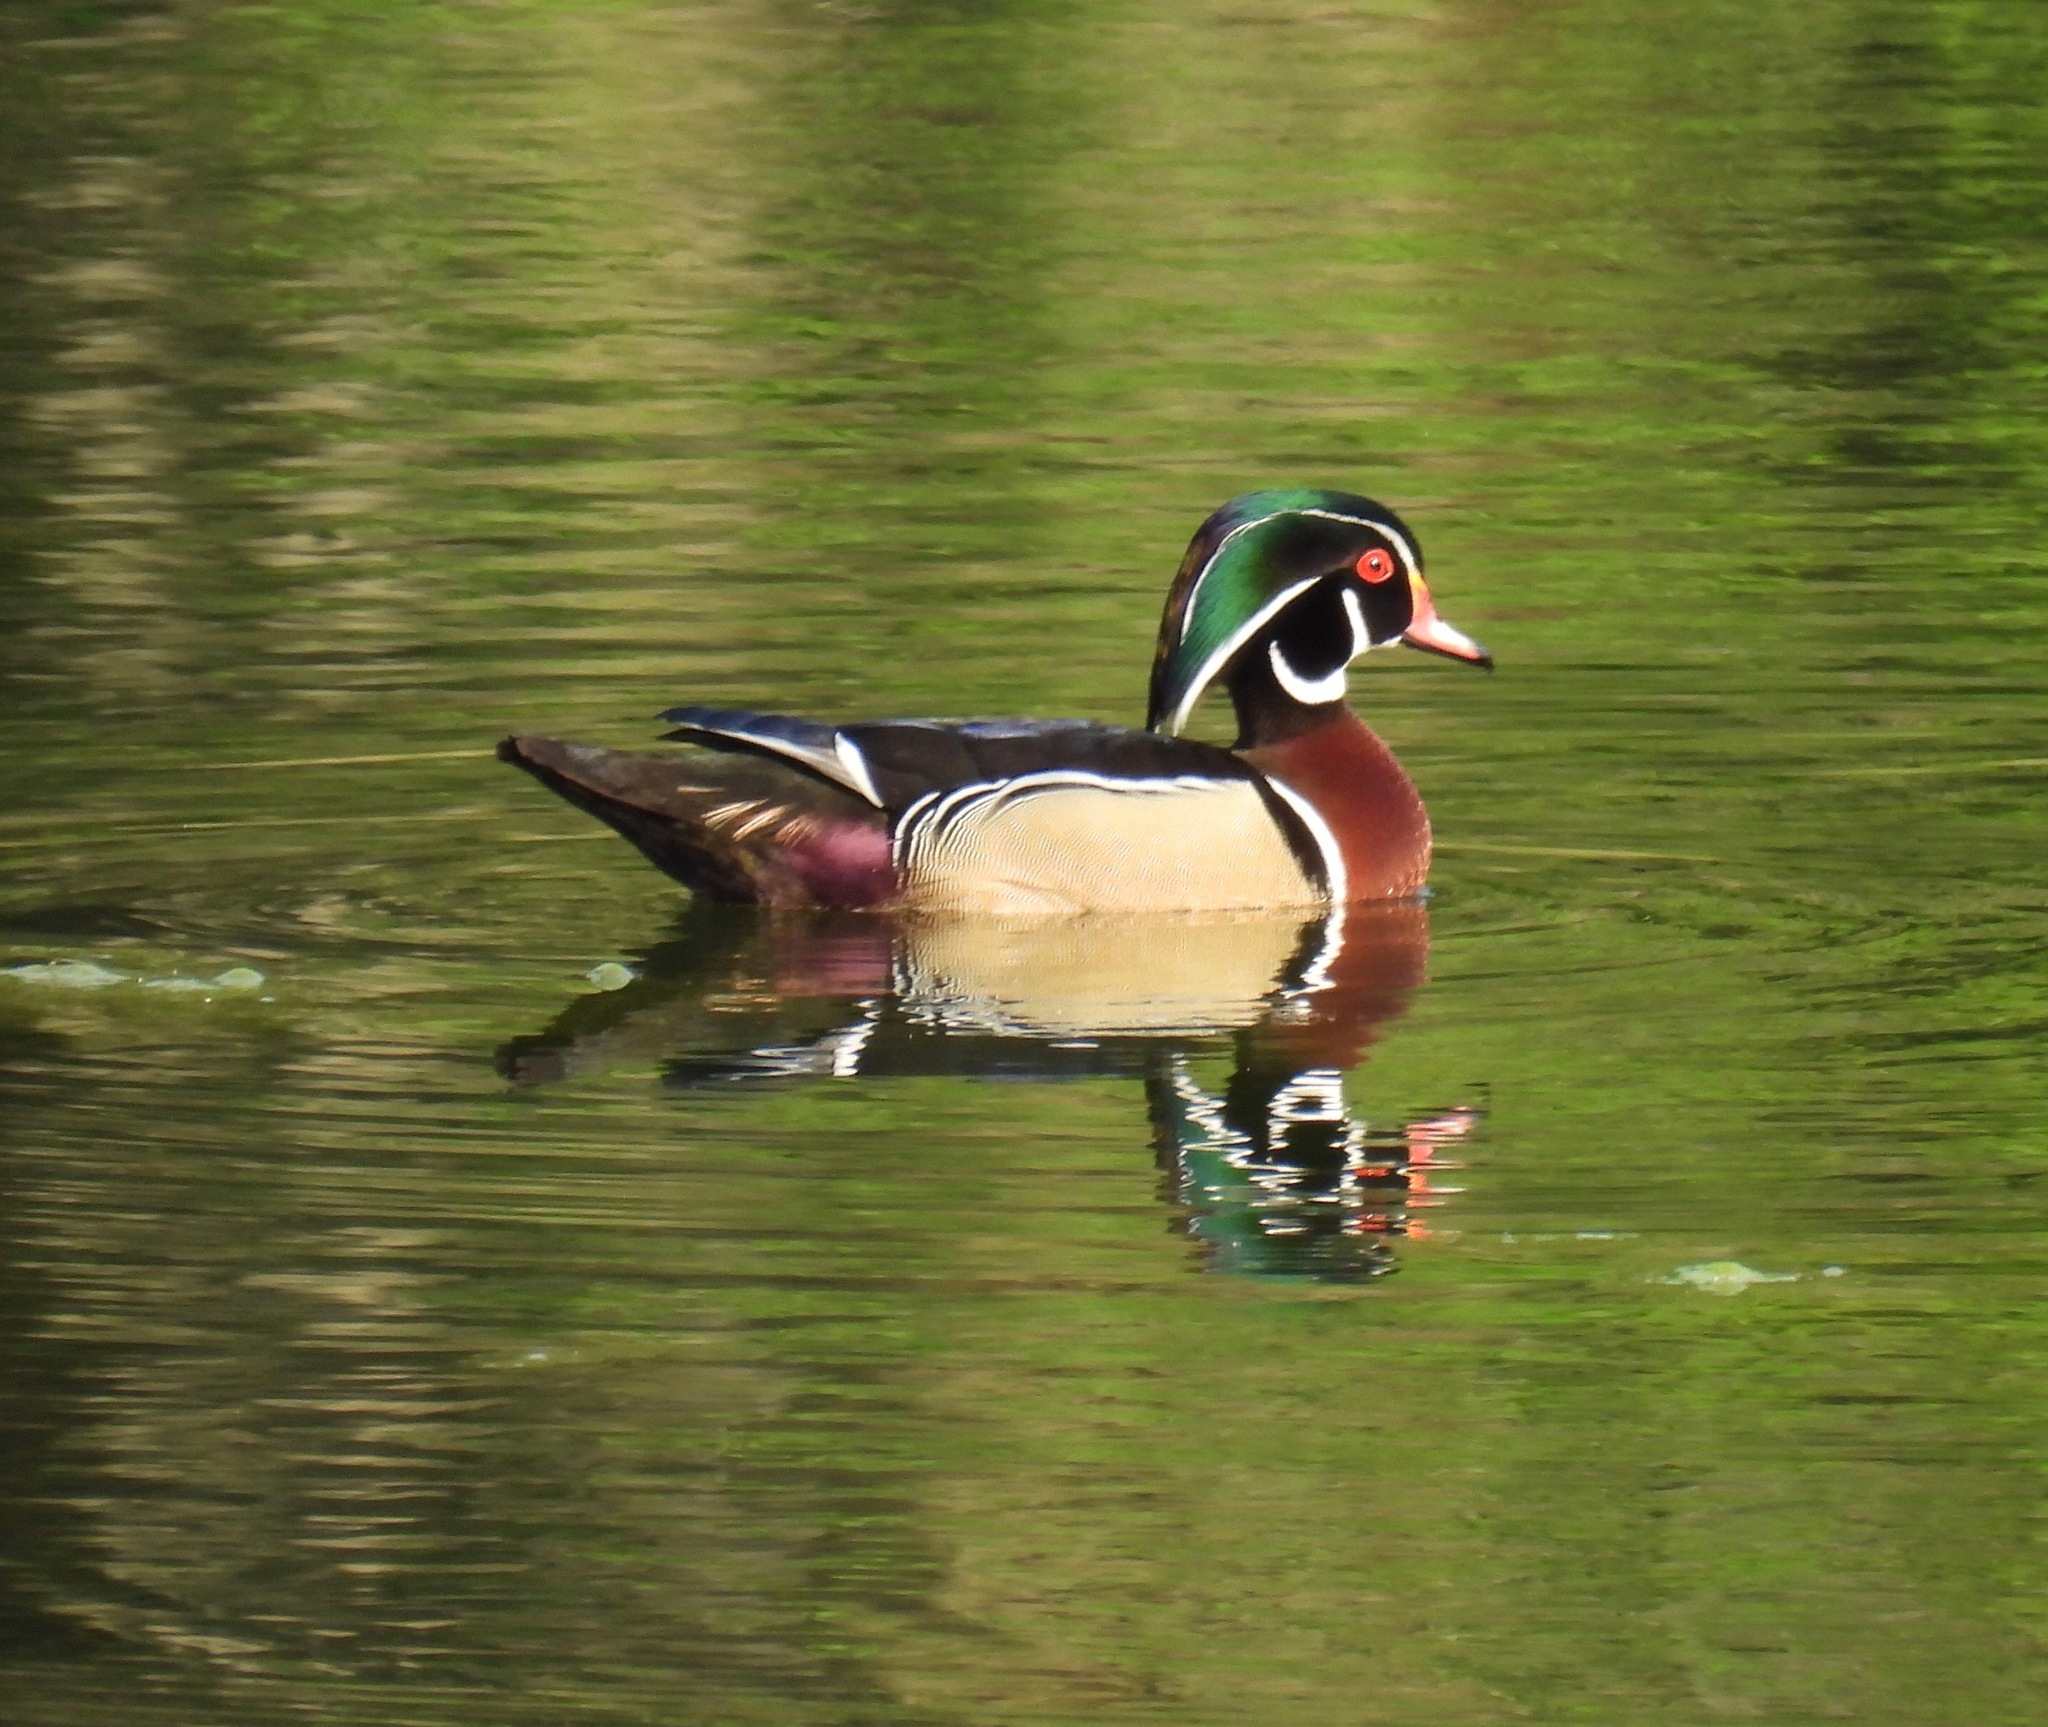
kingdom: Animalia
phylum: Chordata
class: Aves
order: Anseriformes
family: Anatidae
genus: Aix
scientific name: Aix sponsa
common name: Wood duck
